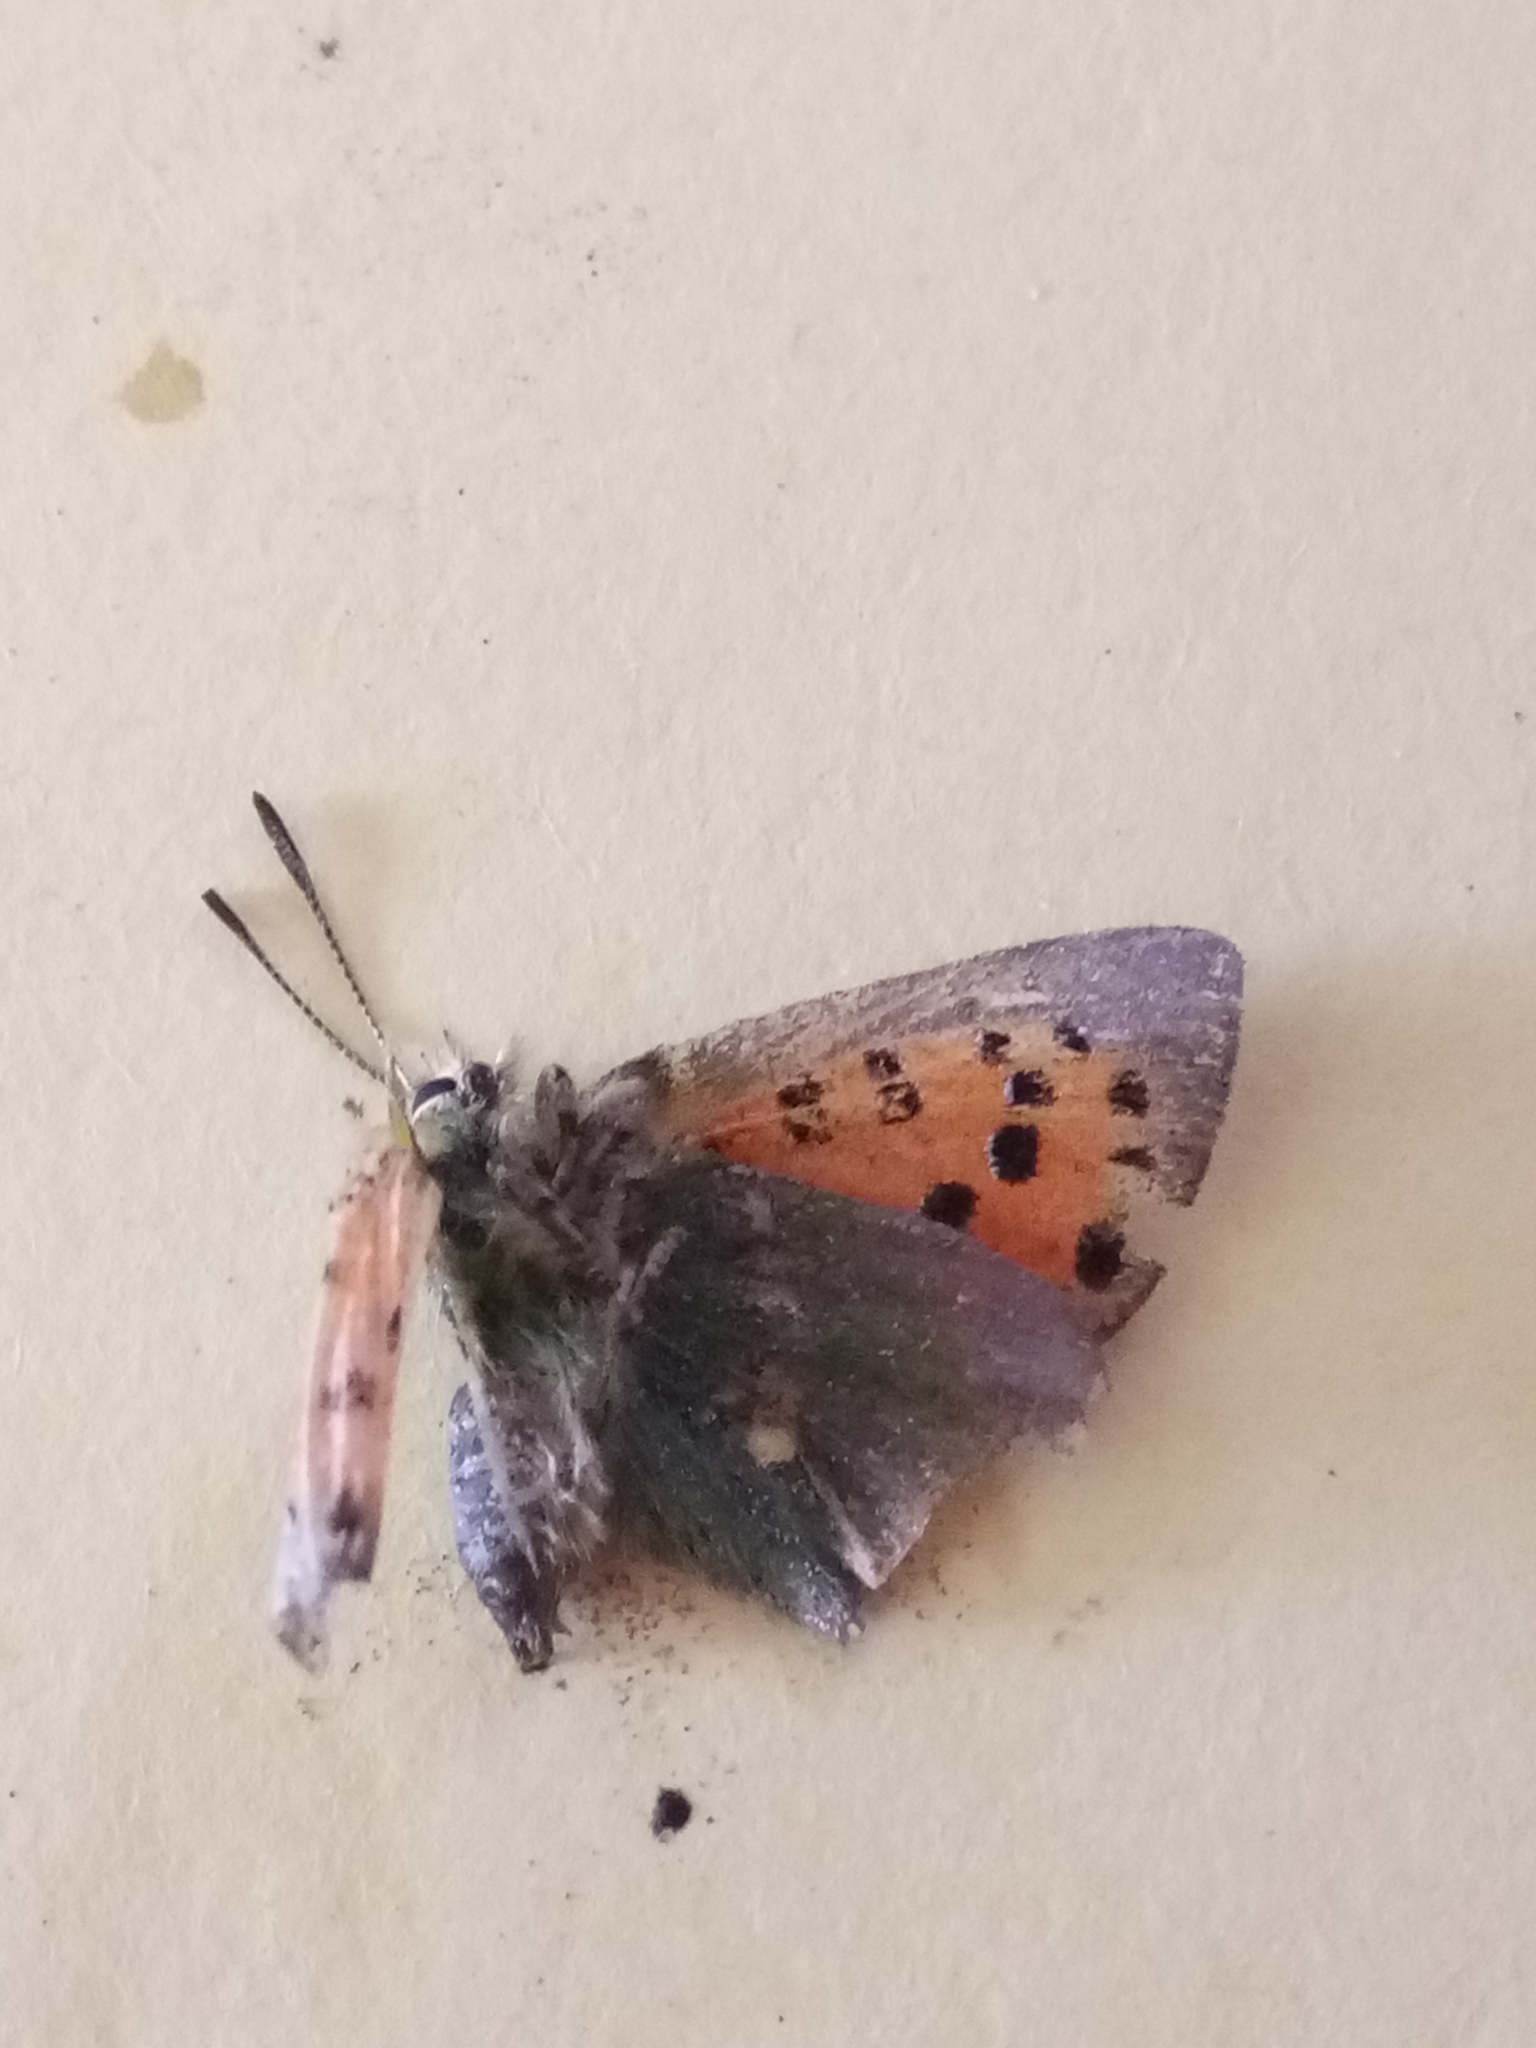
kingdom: Animalia
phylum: Arthropoda
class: Insecta
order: Lepidoptera
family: Lycaenidae
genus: Tomares
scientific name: Tomares ballus
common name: Provence hairstreak
